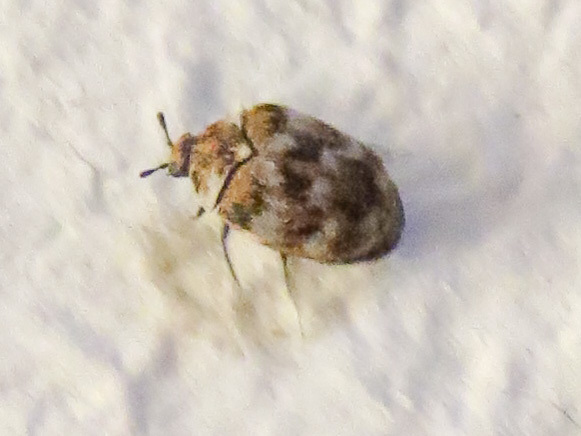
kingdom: Animalia
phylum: Arthropoda
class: Insecta
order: Coleoptera
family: Dermestidae
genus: Anthrenus
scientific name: Anthrenus verbasci
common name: Varied carpet beetle
